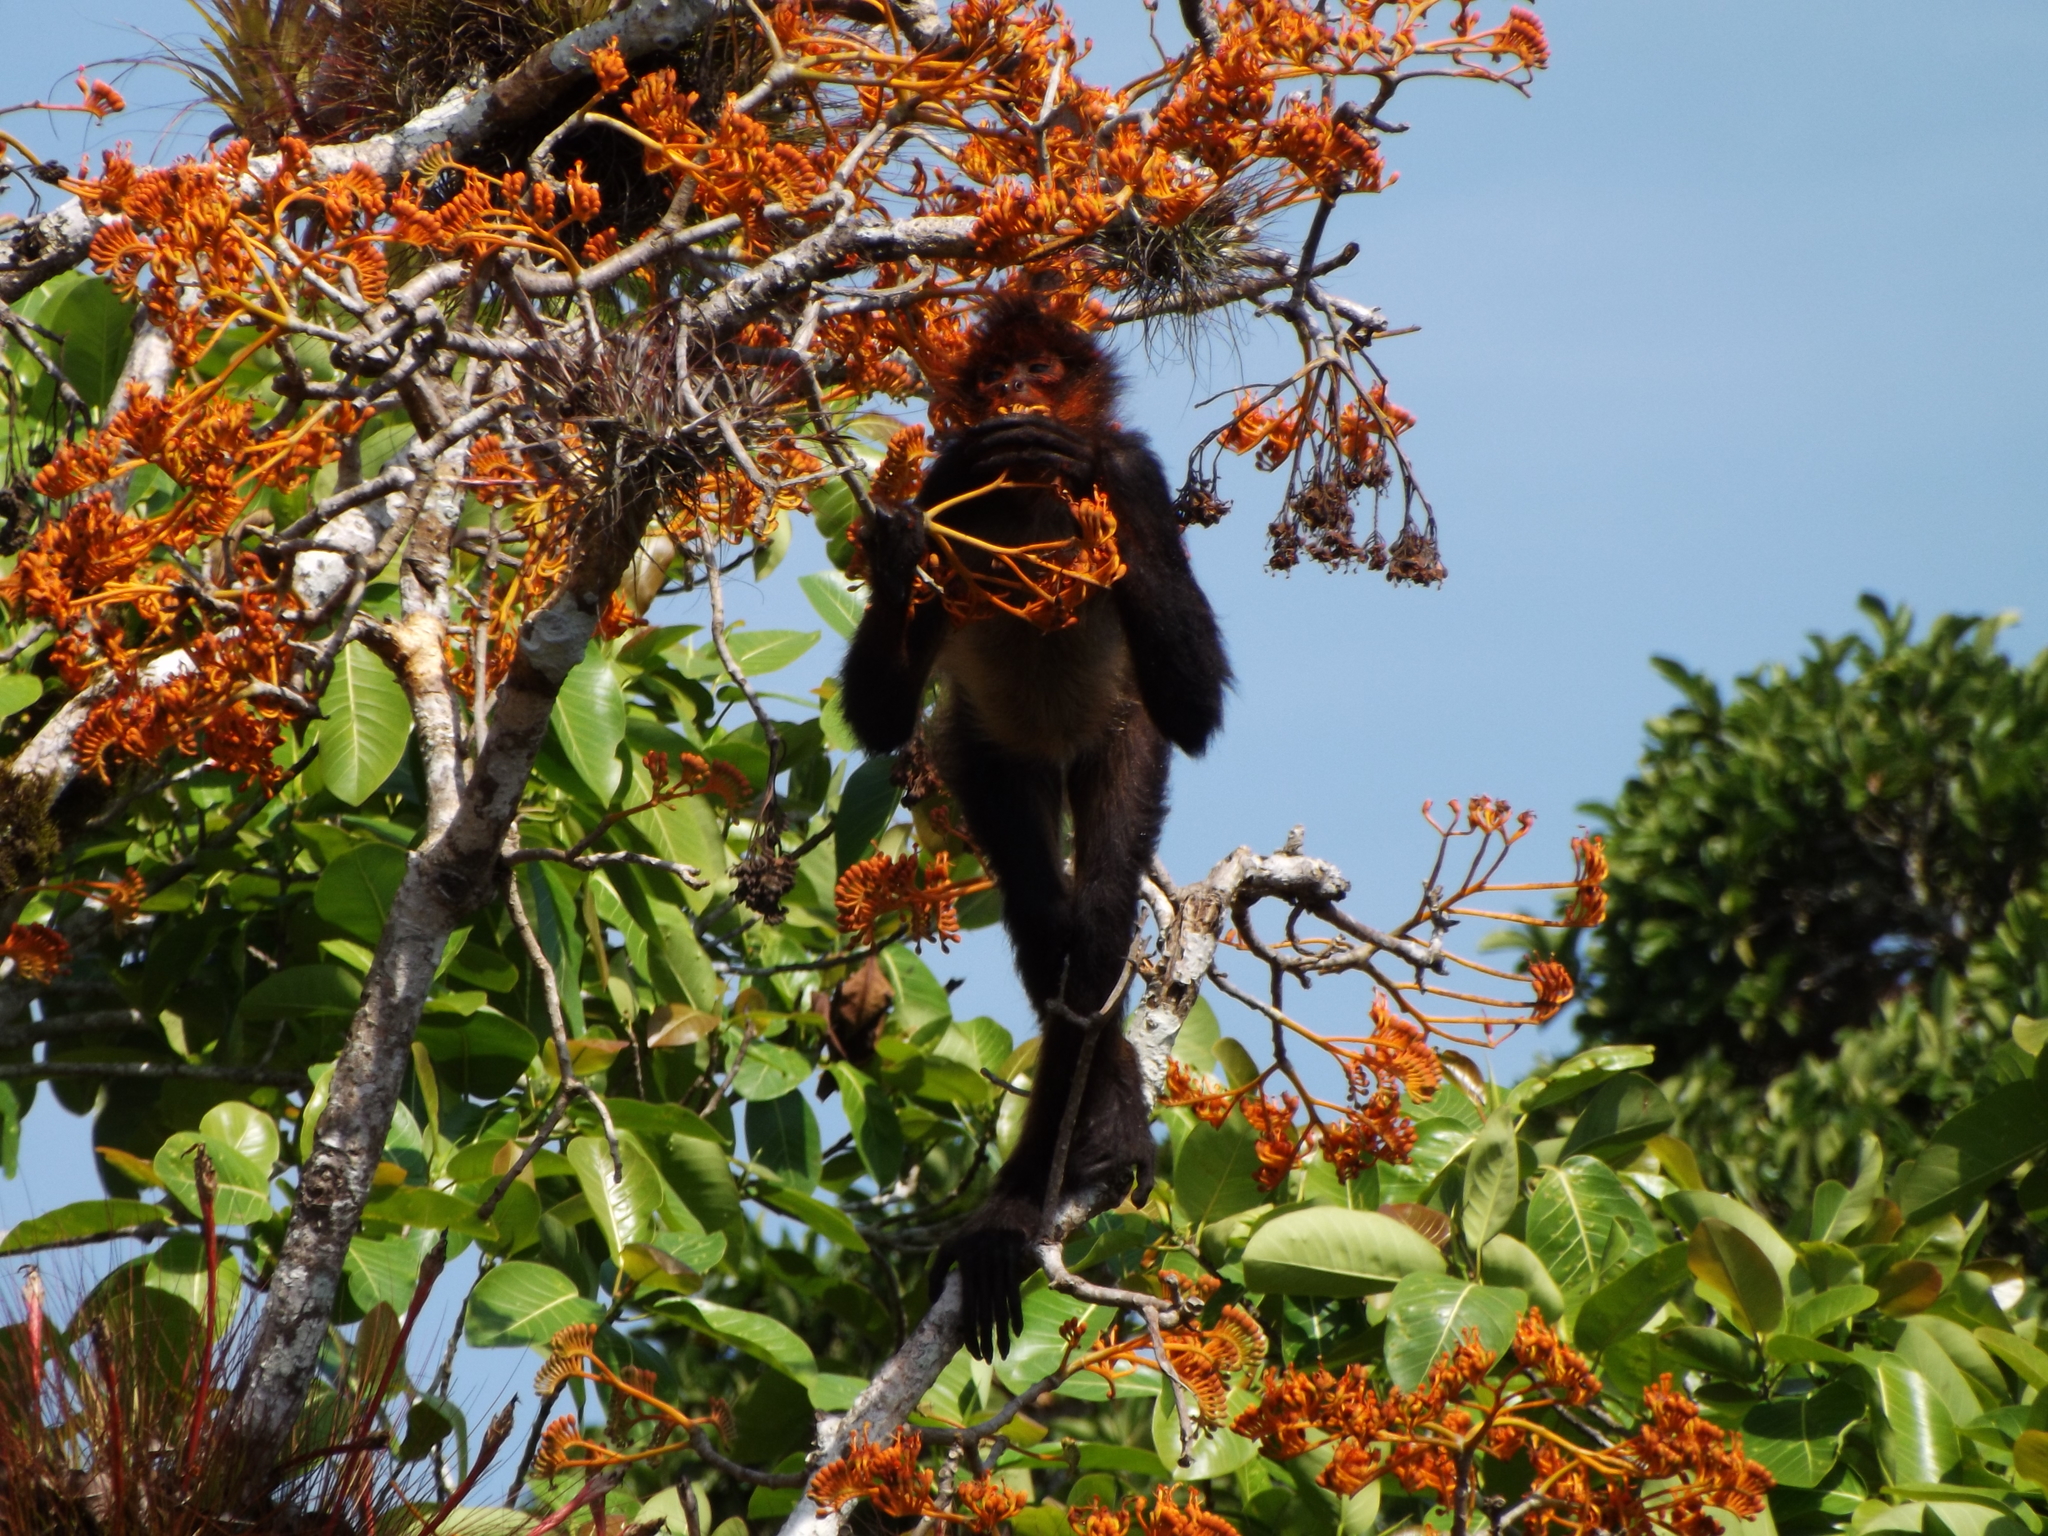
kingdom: Animalia
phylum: Chordata
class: Mammalia
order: Primates
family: Atelidae
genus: Ateles
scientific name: Ateles geoffroyi
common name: Black-handed spider monkey
